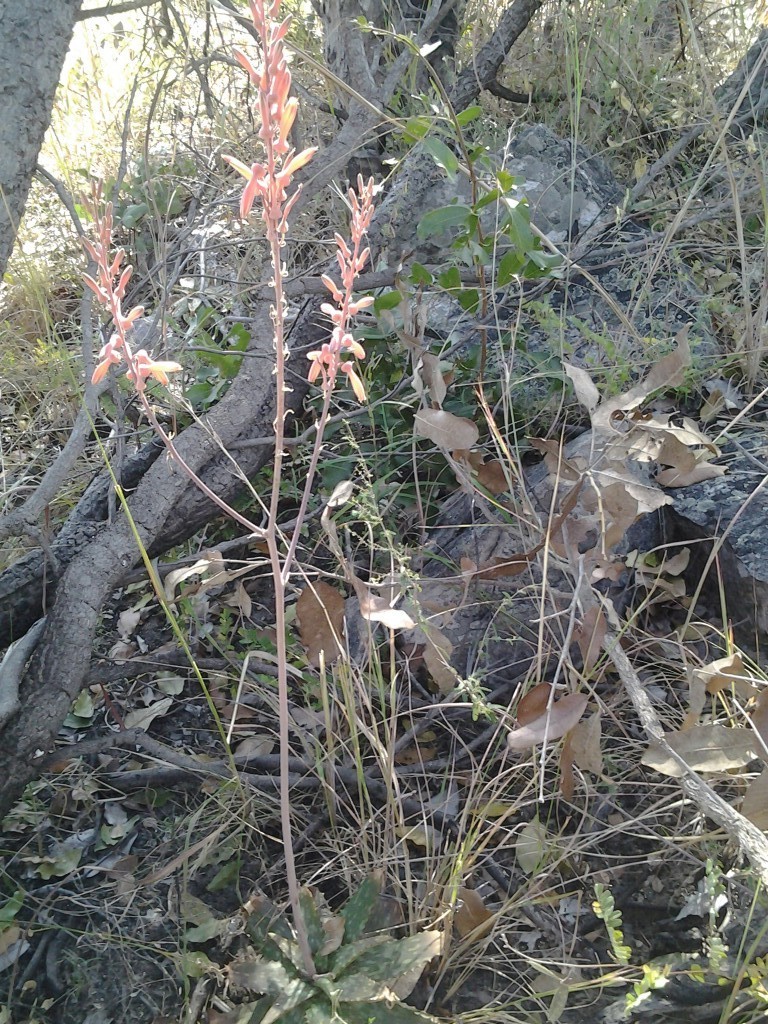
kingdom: Plantae
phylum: Tracheophyta
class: Liliopsida
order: Asparagales
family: Asphodelaceae
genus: Aloe
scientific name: Aloe zebrina
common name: Zebra-leaf aloe
